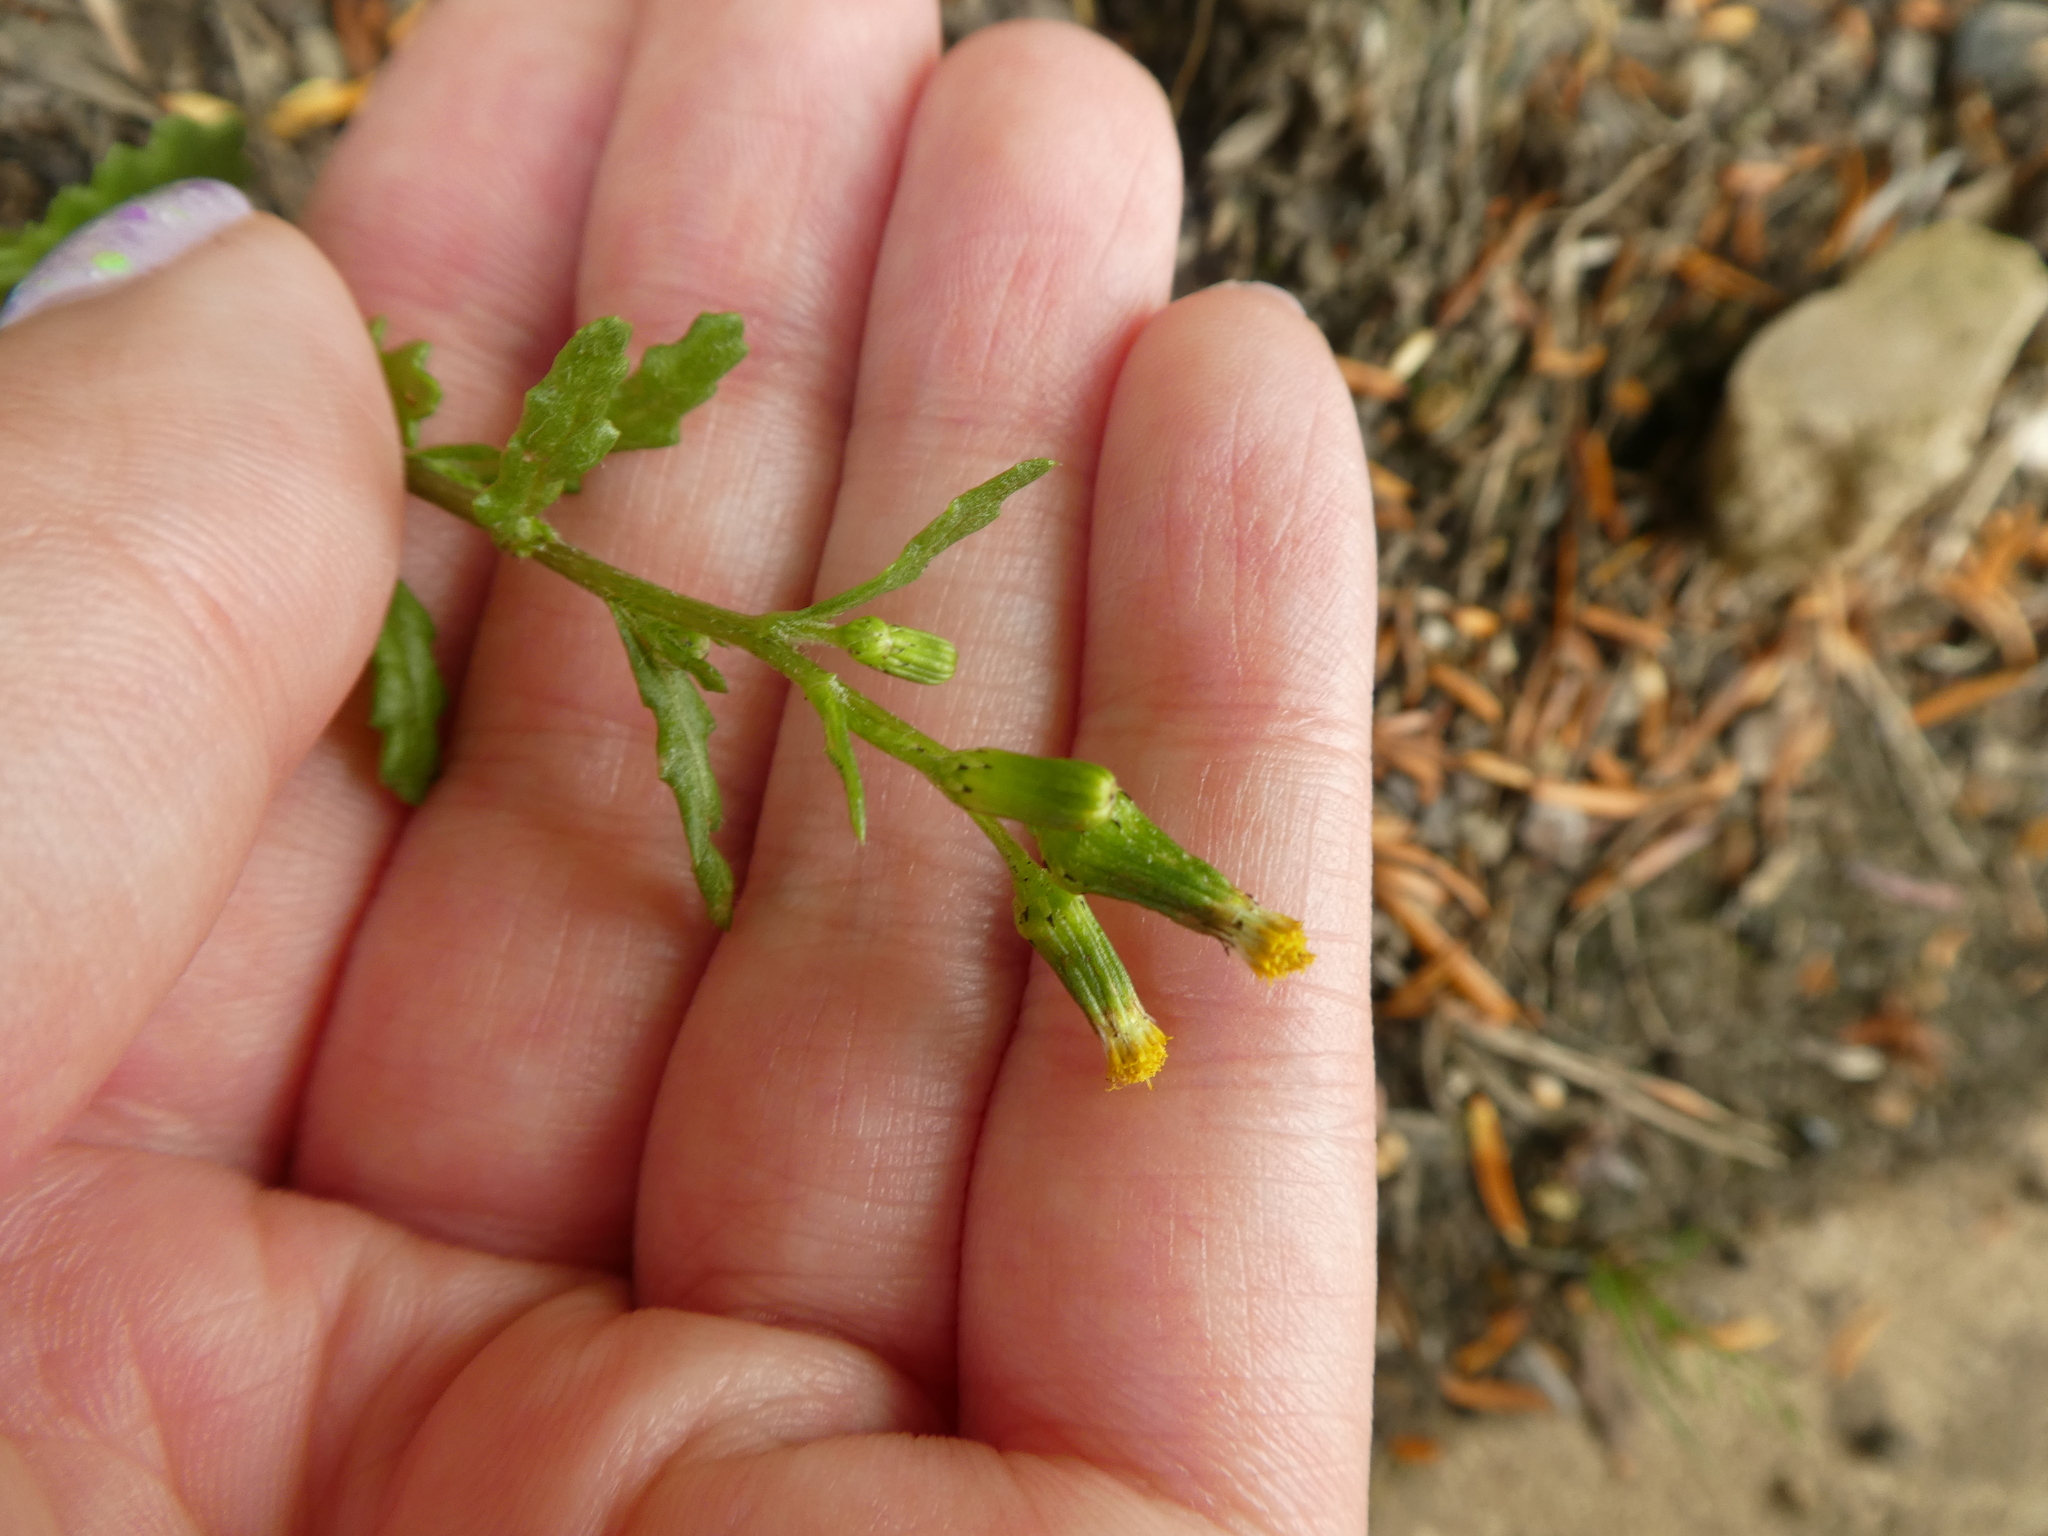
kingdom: Plantae
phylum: Tracheophyta
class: Magnoliopsida
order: Asterales
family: Asteraceae
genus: Senecio
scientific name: Senecio vulgaris
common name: Old-man-in-the-spring
